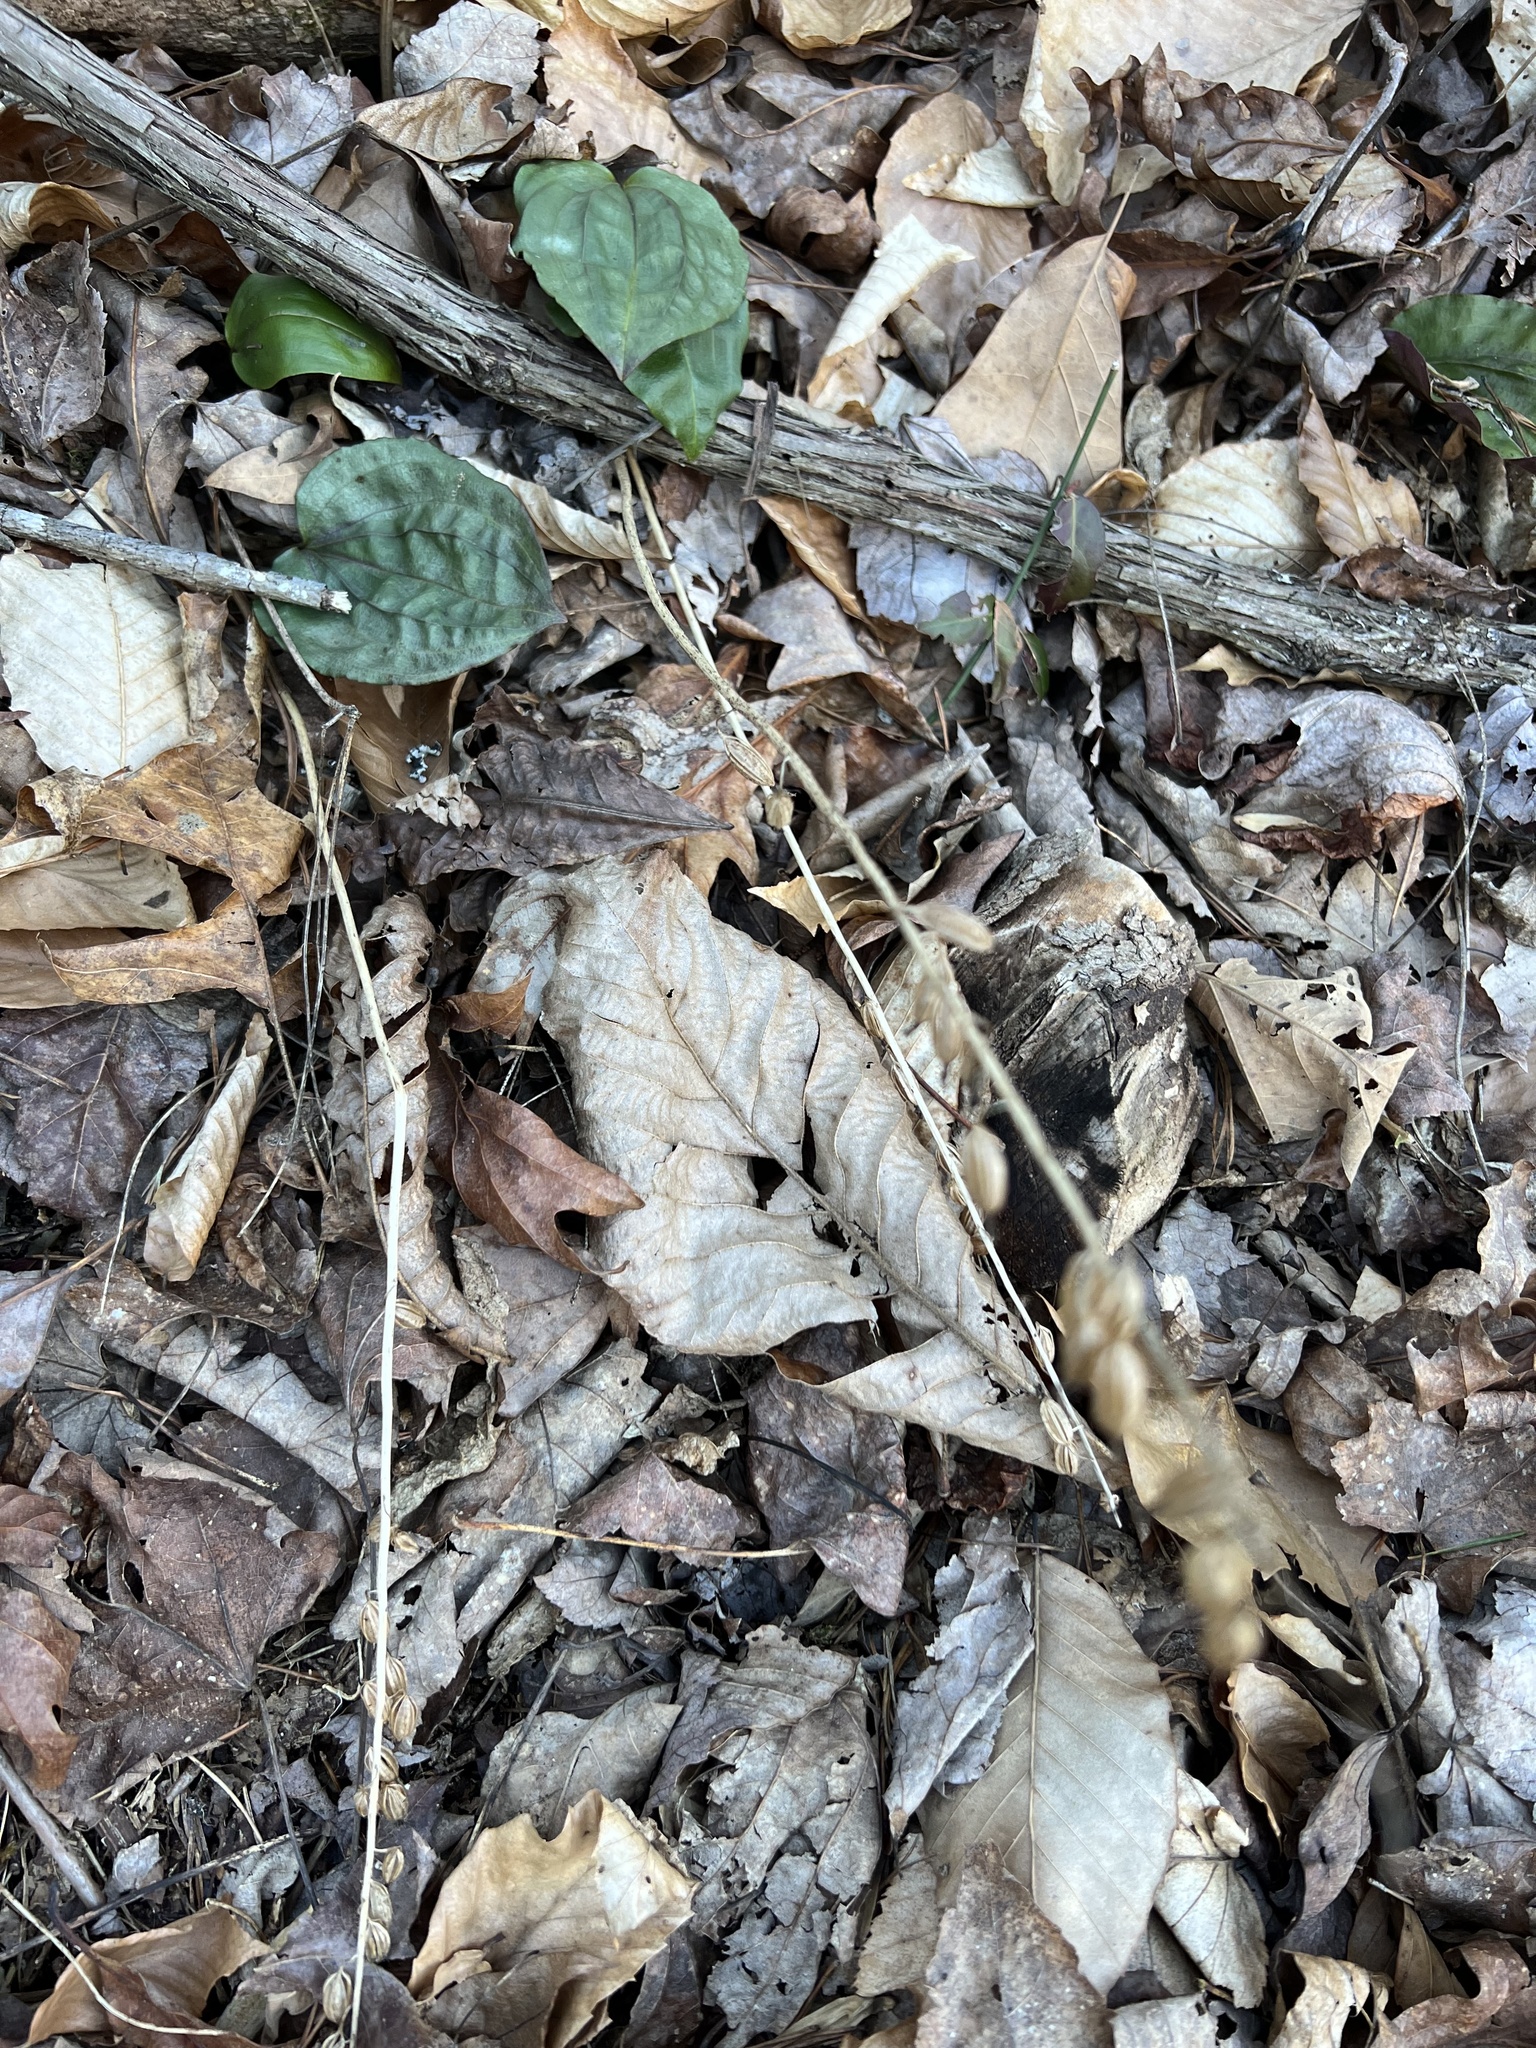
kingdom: Plantae
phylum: Tracheophyta
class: Liliopsida
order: Asparagales
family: Orchidaceae
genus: Tipularia
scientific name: Tipularia discolor
